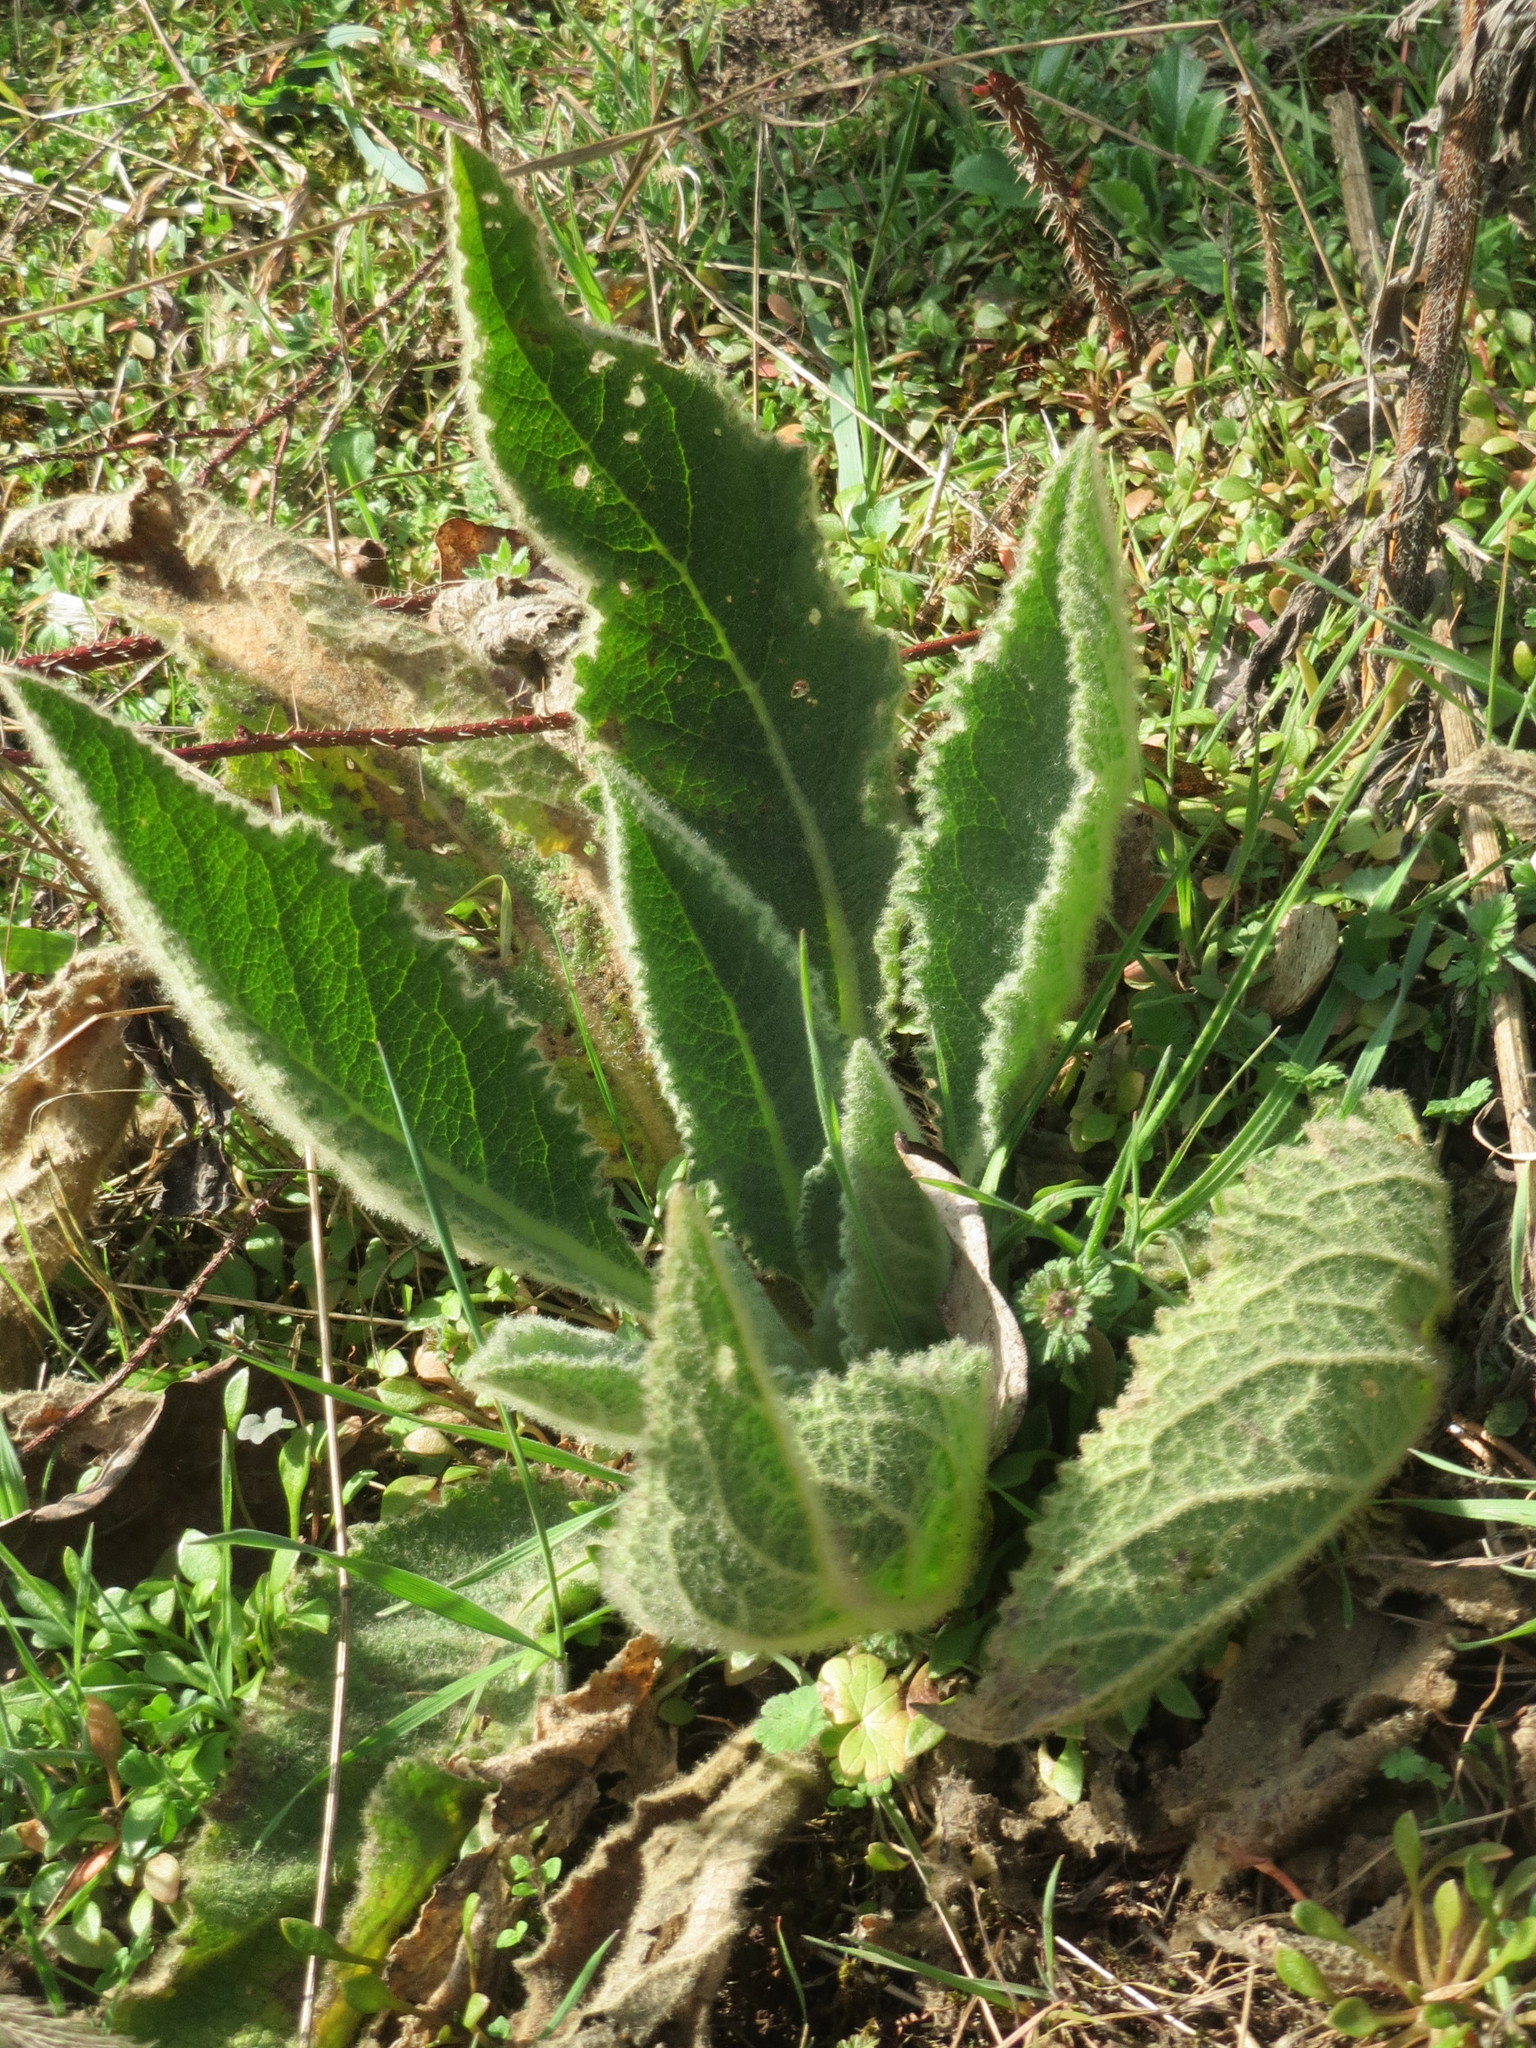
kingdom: Plantae
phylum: Tracheophyta
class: Magnoliopsida
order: Lamiales
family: Scrophulariaceae
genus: Verbascum
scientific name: Verbascum thapsus
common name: Common mullein
